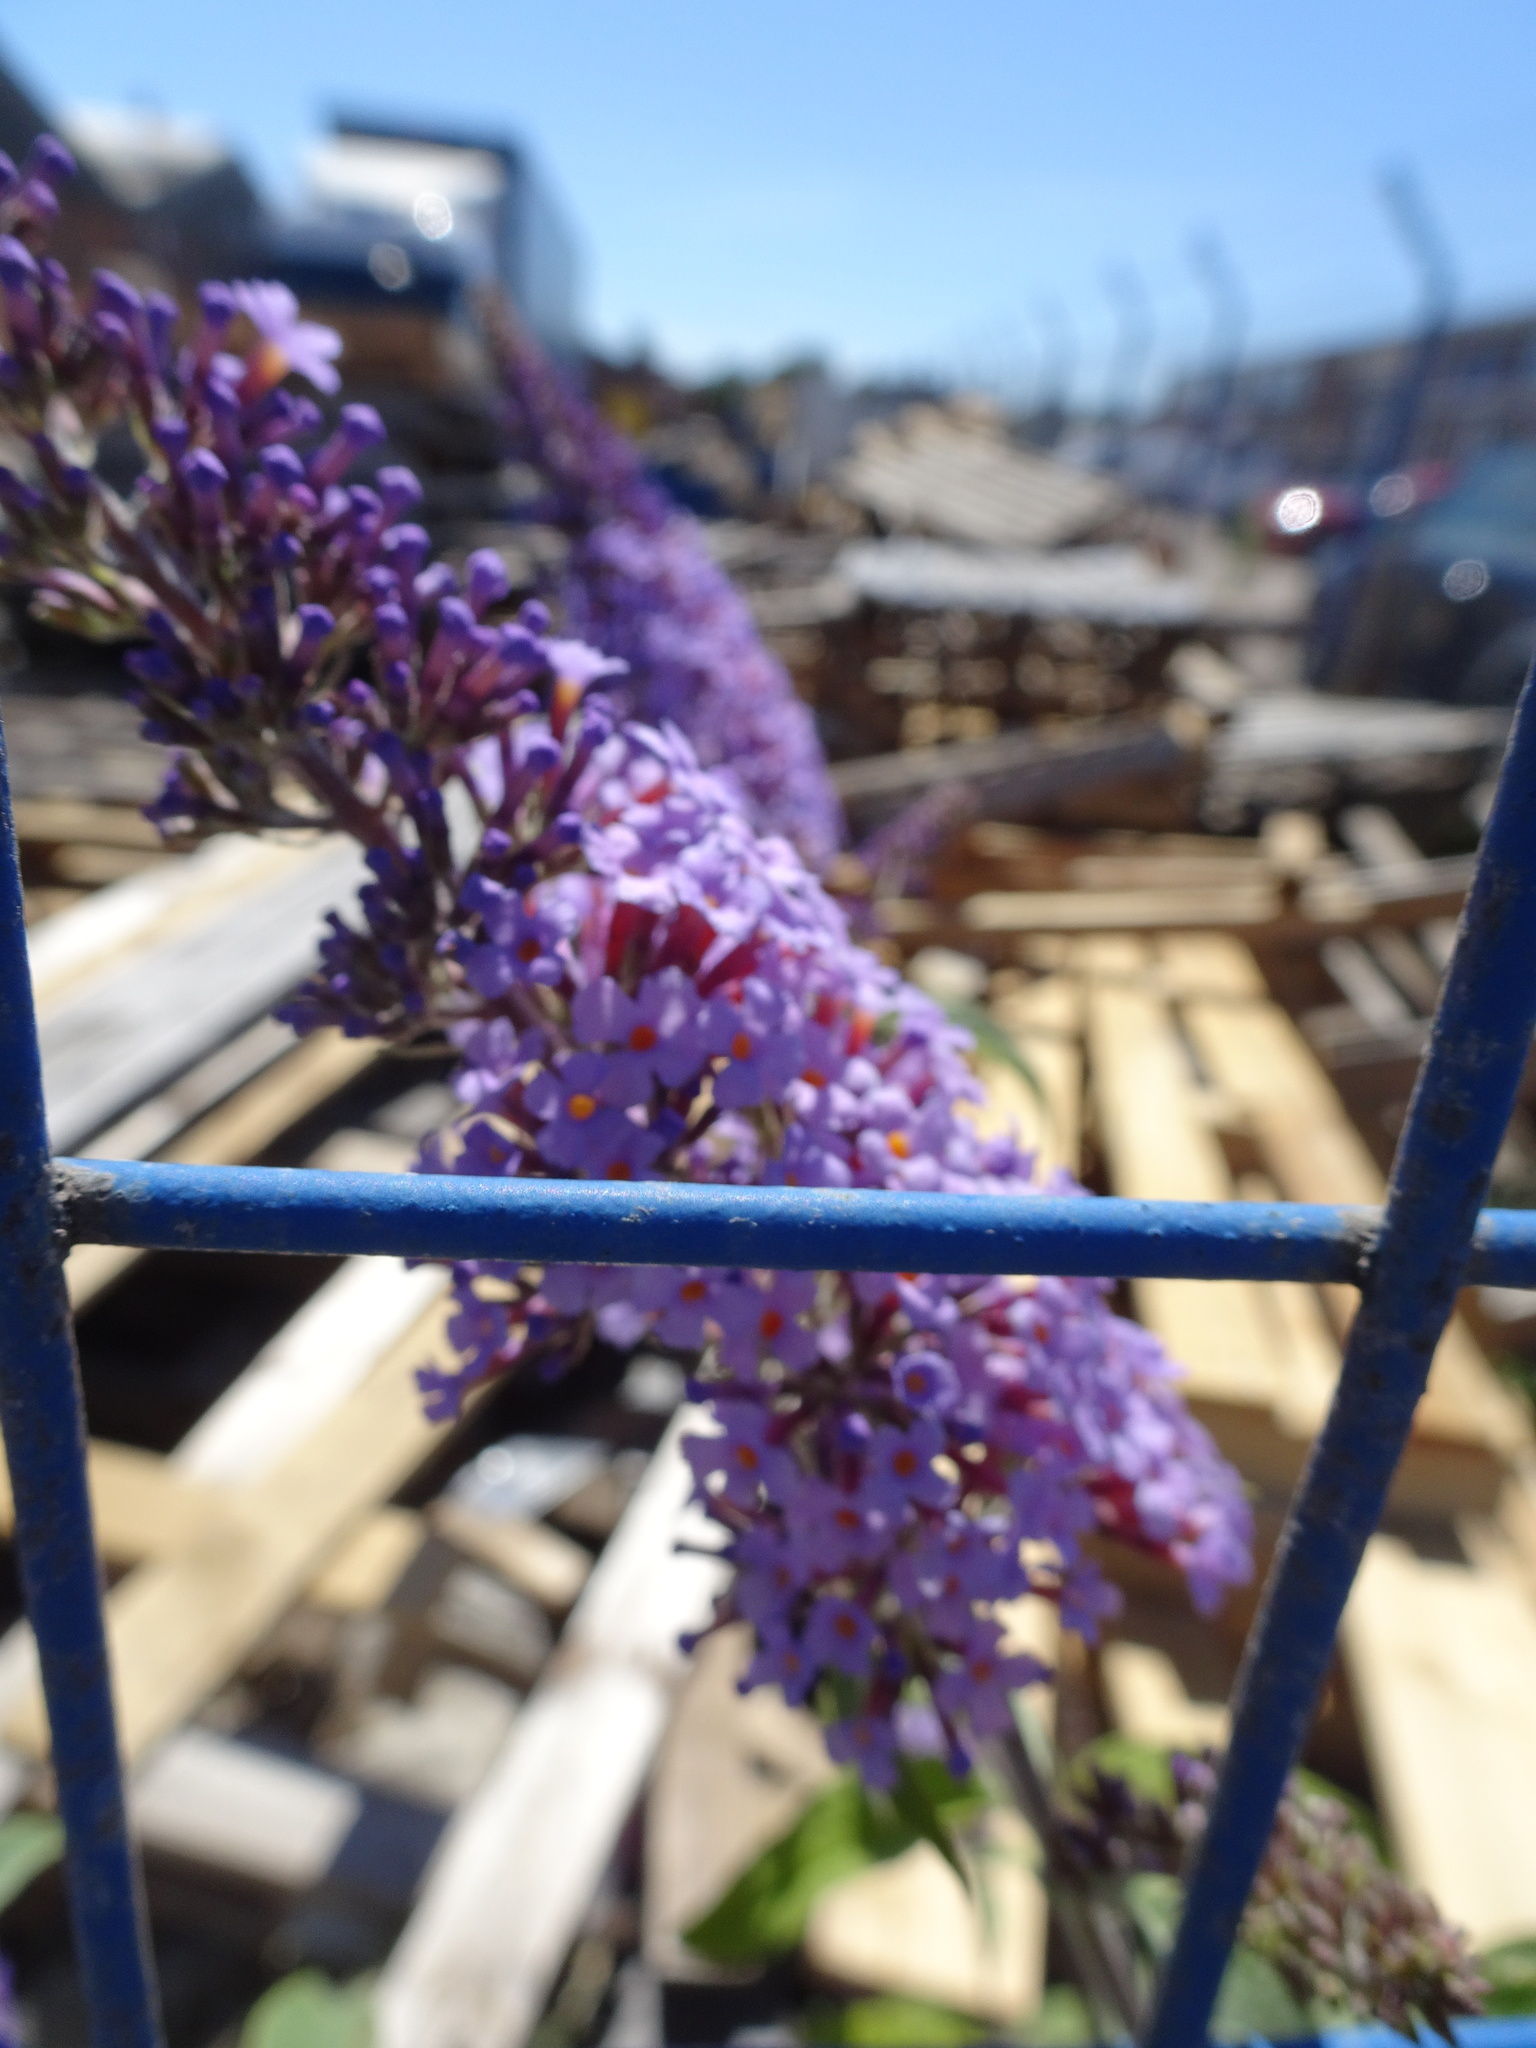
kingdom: Plantae
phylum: Tracheophyta
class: Magnoliopsida
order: Lamiales
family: Scrophulariaceae
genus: Buddleja
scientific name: Buddleja davidii
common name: Butterfly-bush
